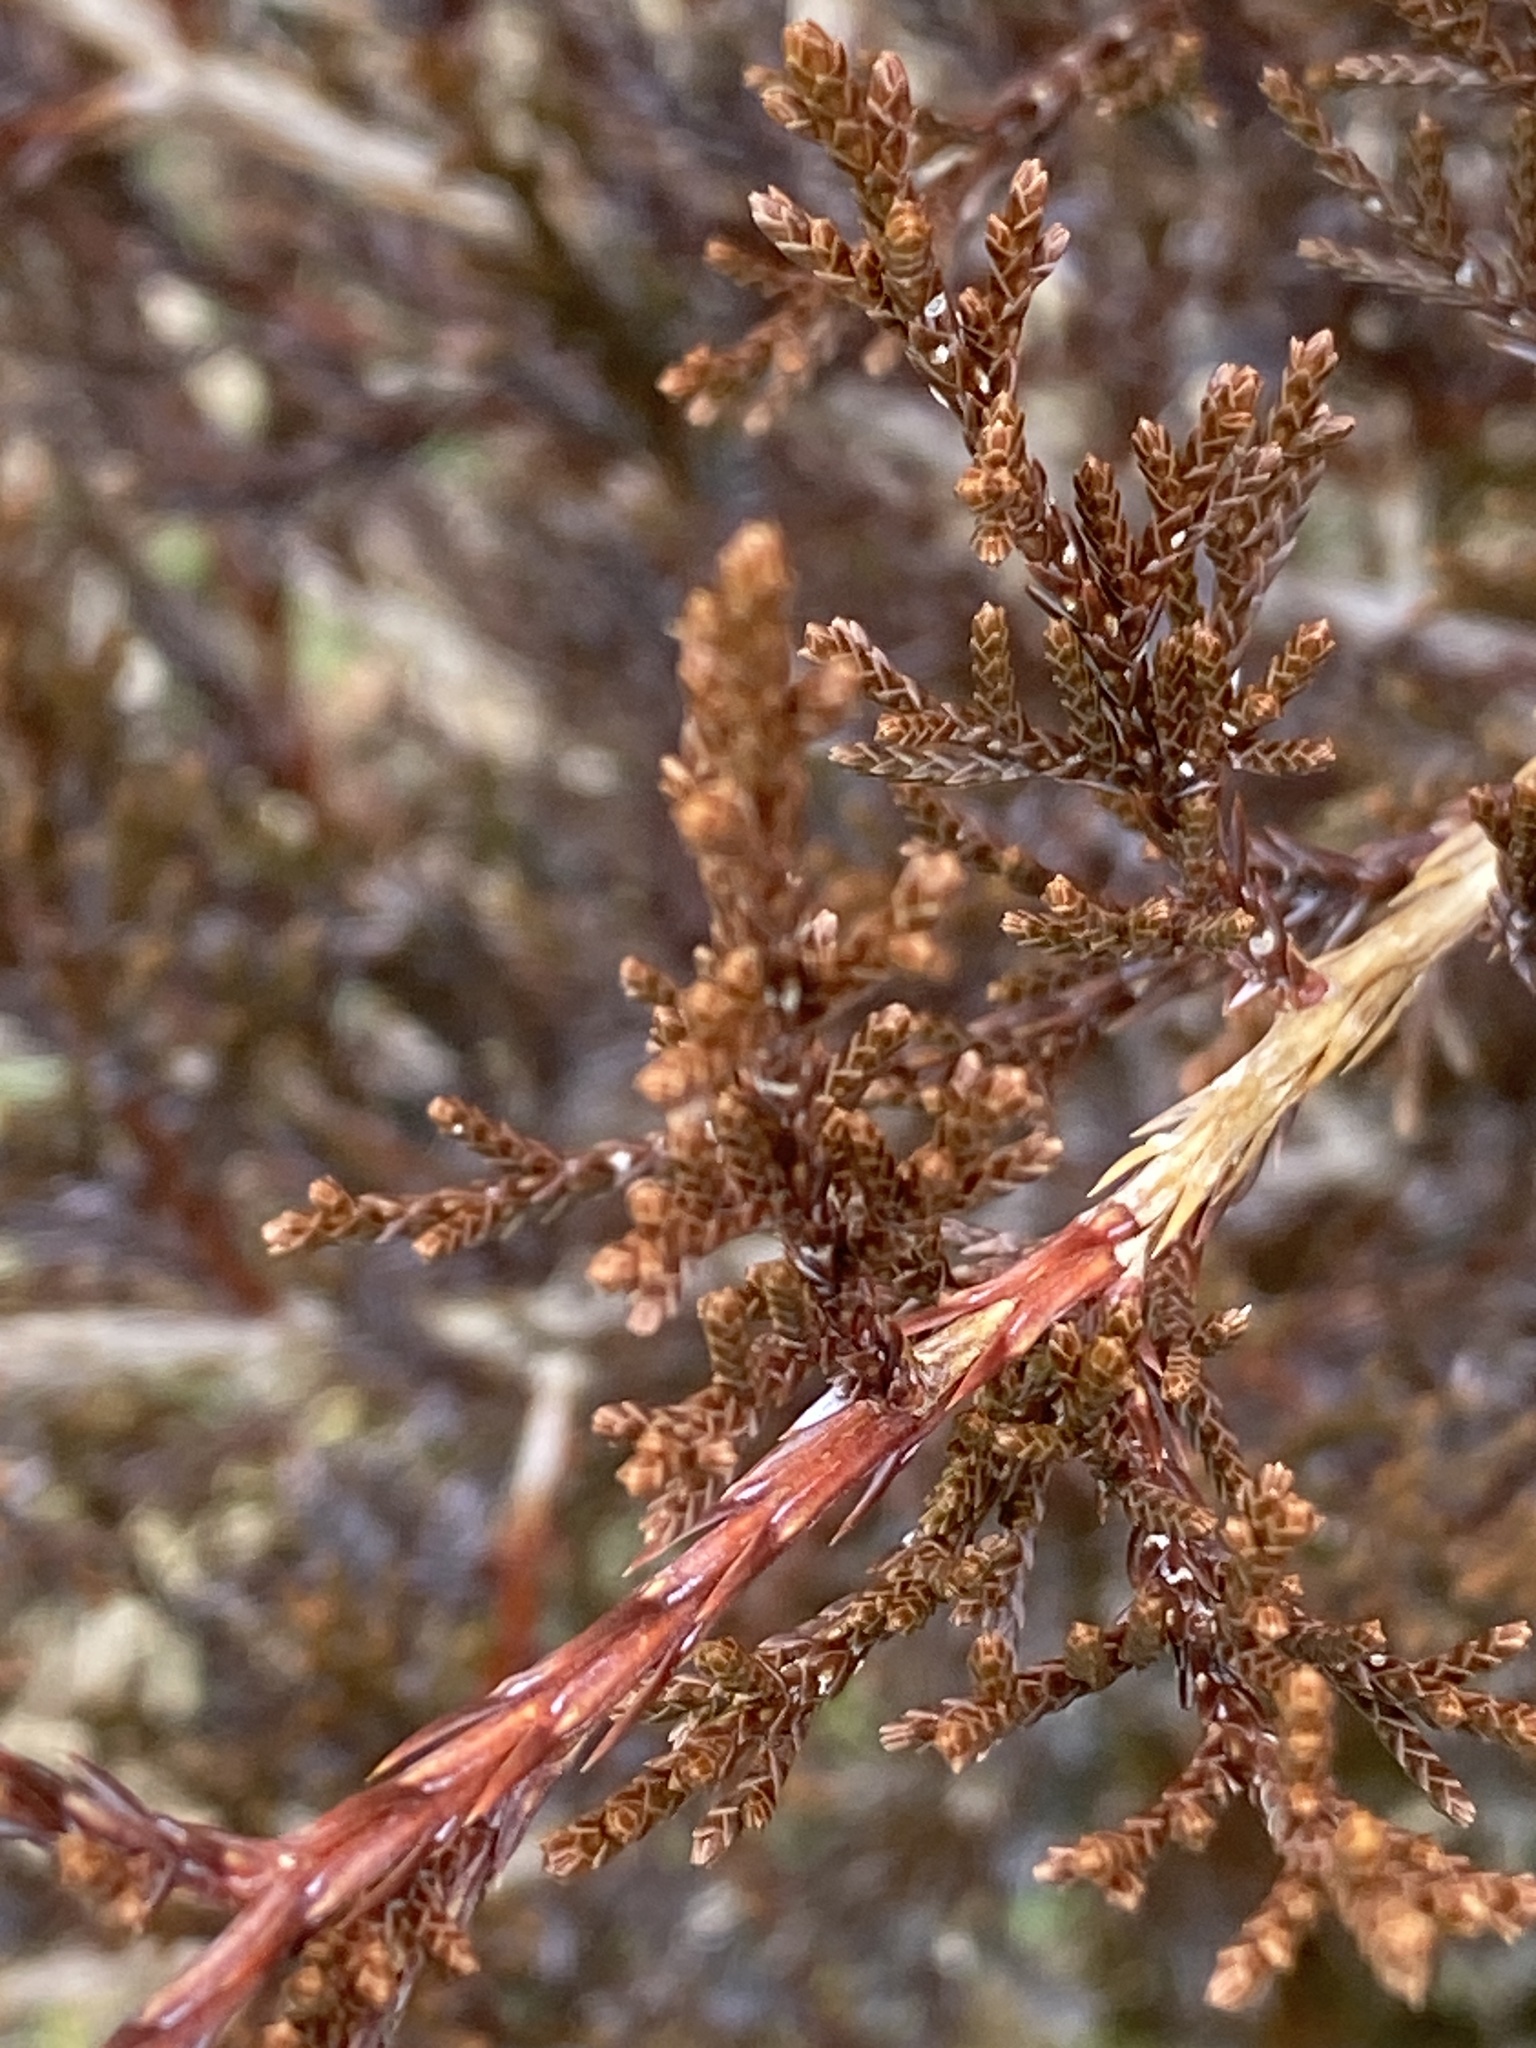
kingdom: Plantae
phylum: Tracheophyta
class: Pinopsida
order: Pinales
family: Cupressaceae
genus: Juniperus
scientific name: Juniperus virginiana
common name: Red juniper
